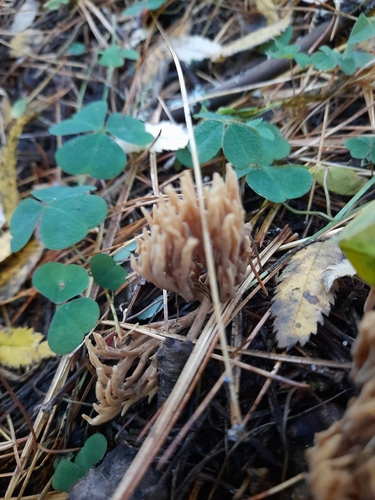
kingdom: Fungi
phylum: Basidiomycota
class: Agaricomycetes
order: Gomphales
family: Gomphaceae
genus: Ramaria
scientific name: Ramaria stricta
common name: Upright coral
